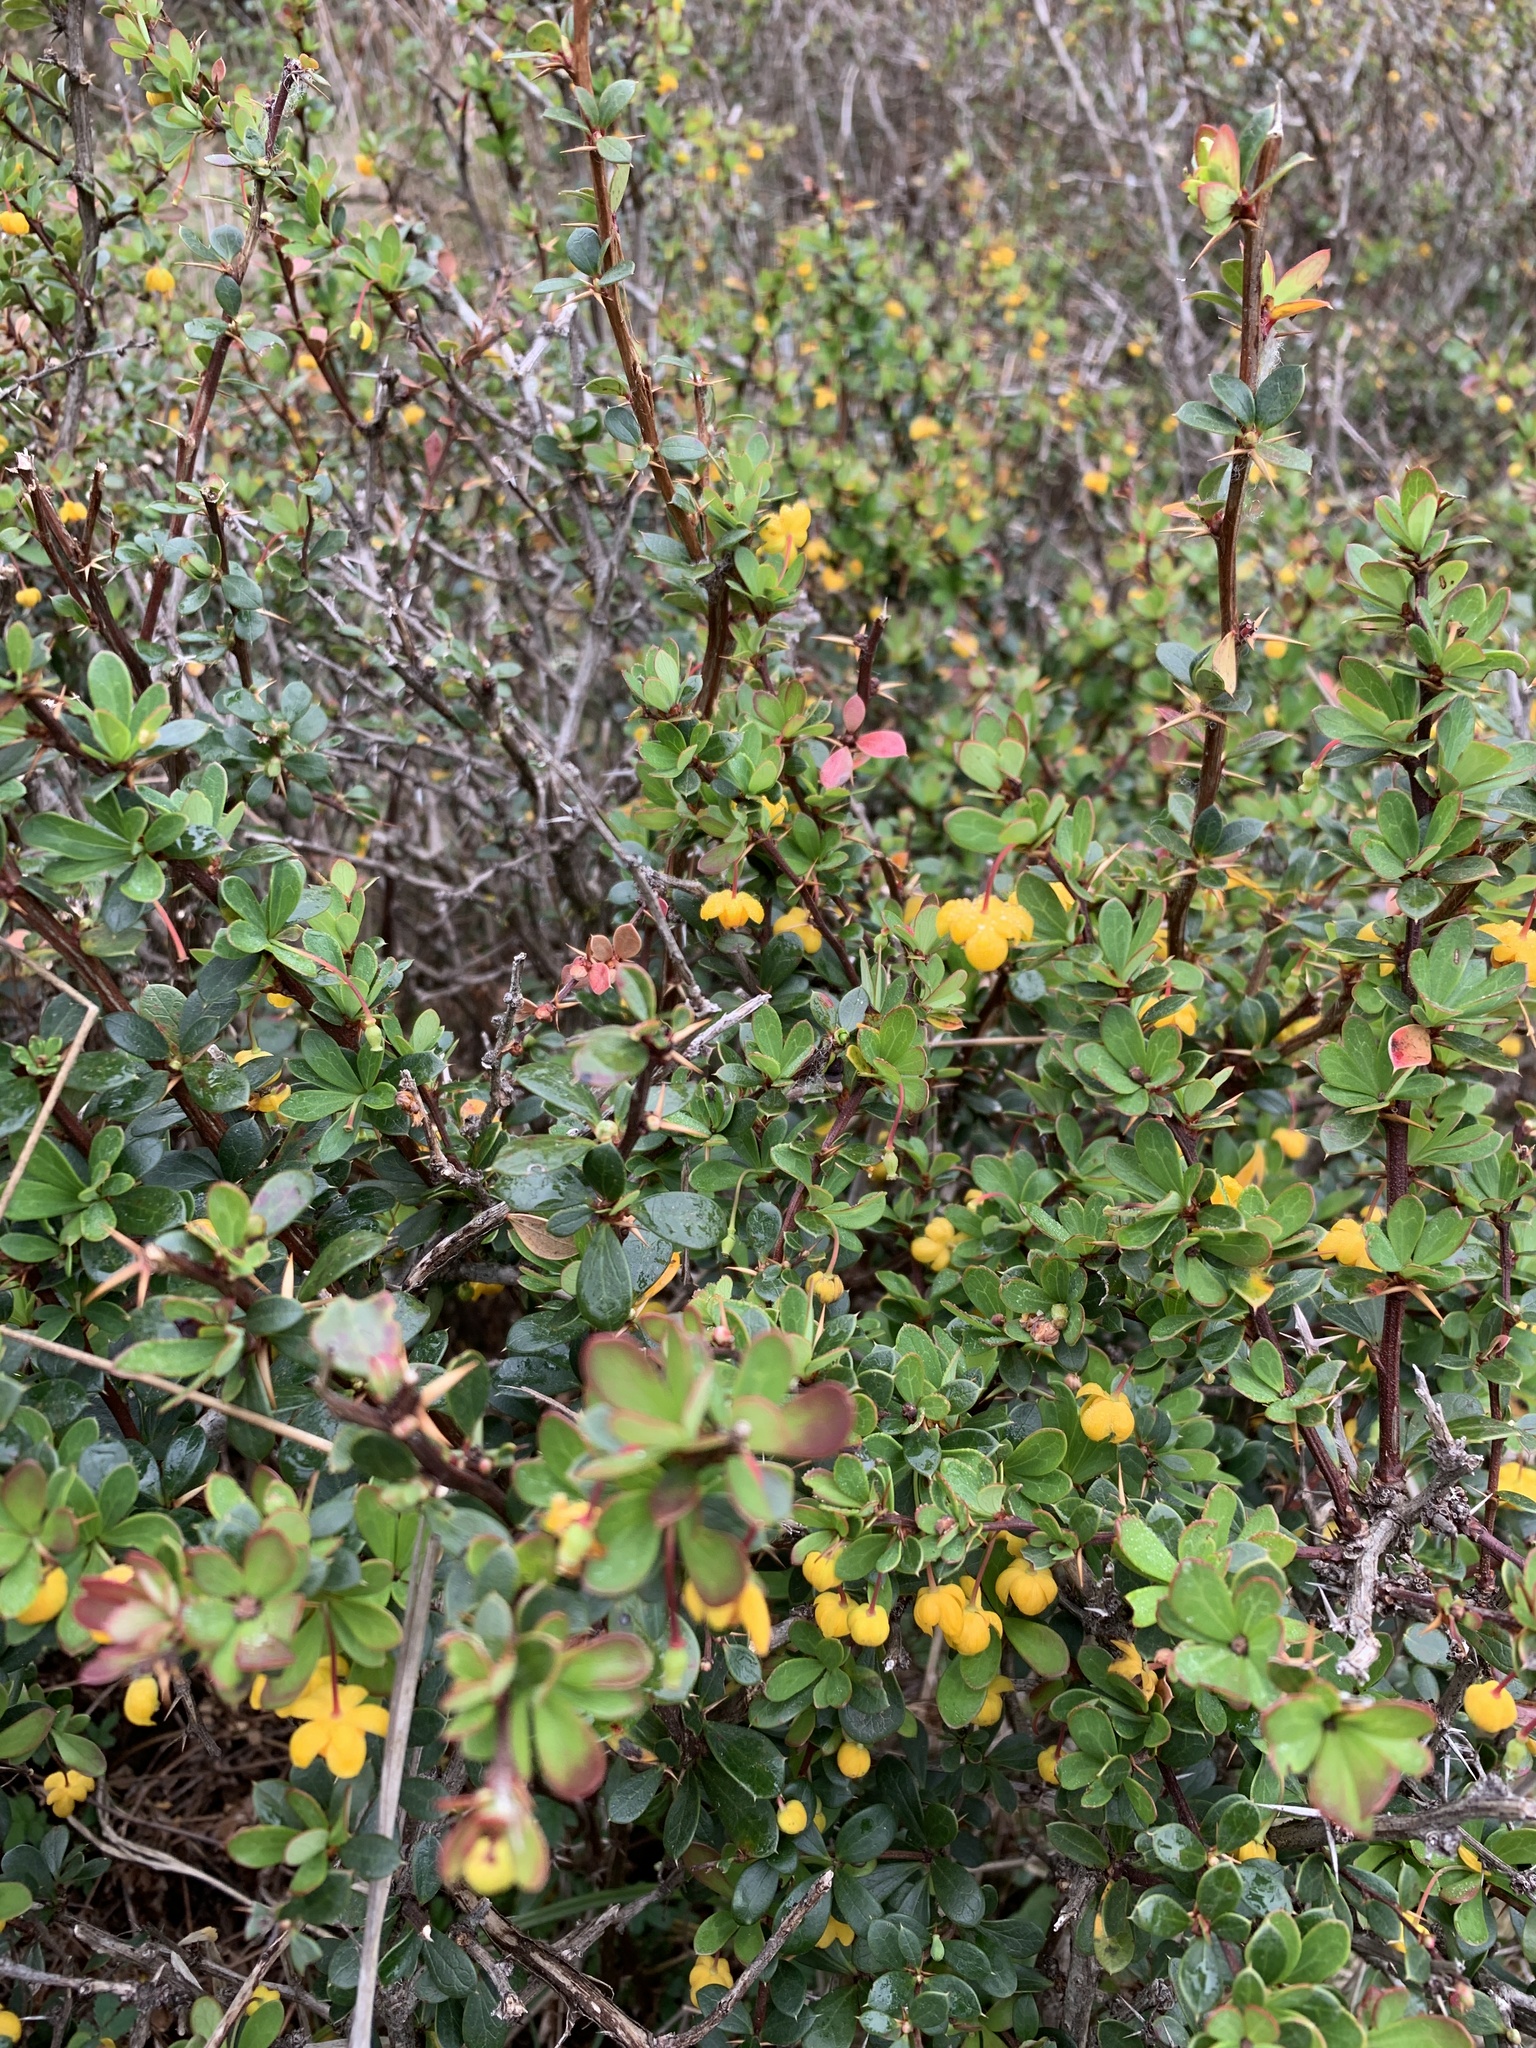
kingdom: Plantae
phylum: Tracheophyta
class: Magnoliopsida
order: Ranunculales
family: Berberidaceae
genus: Berberis
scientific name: Berberis microphylla
